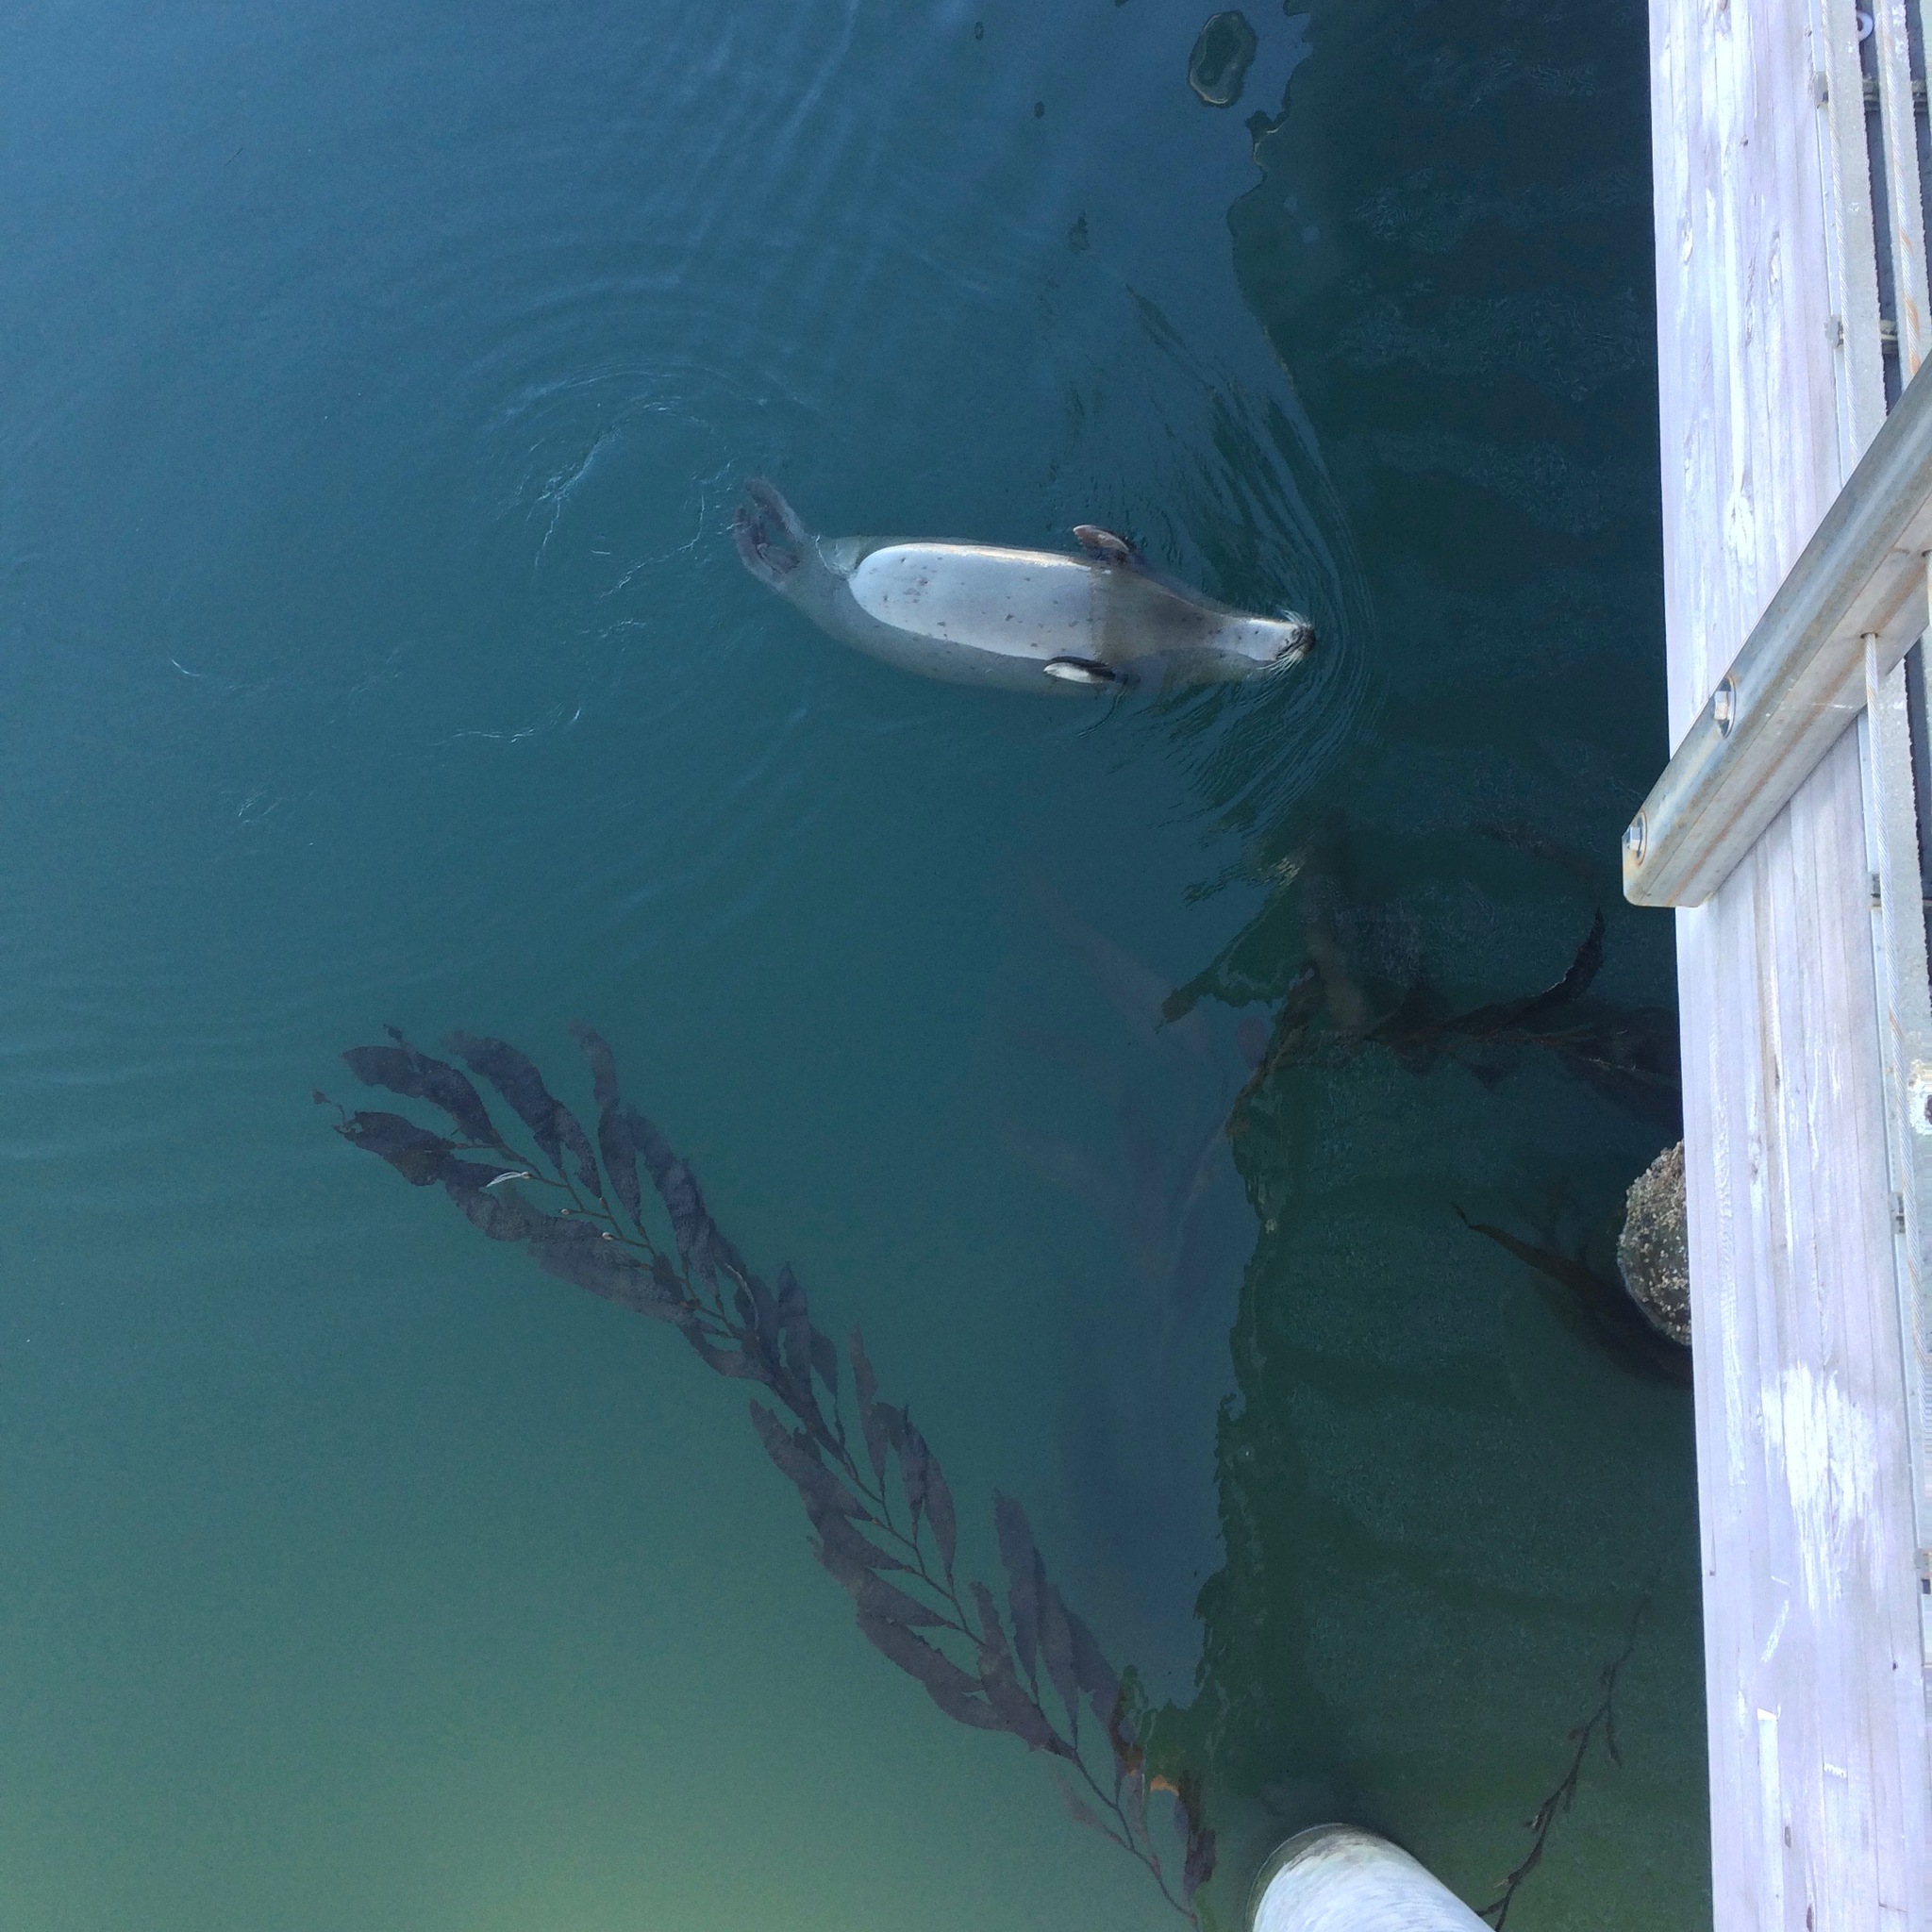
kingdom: Animalia
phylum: Chordata
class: Mammalia
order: Carnivora
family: Phocidae
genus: Phoca
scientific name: Phoca vitulina
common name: Harbor seal
